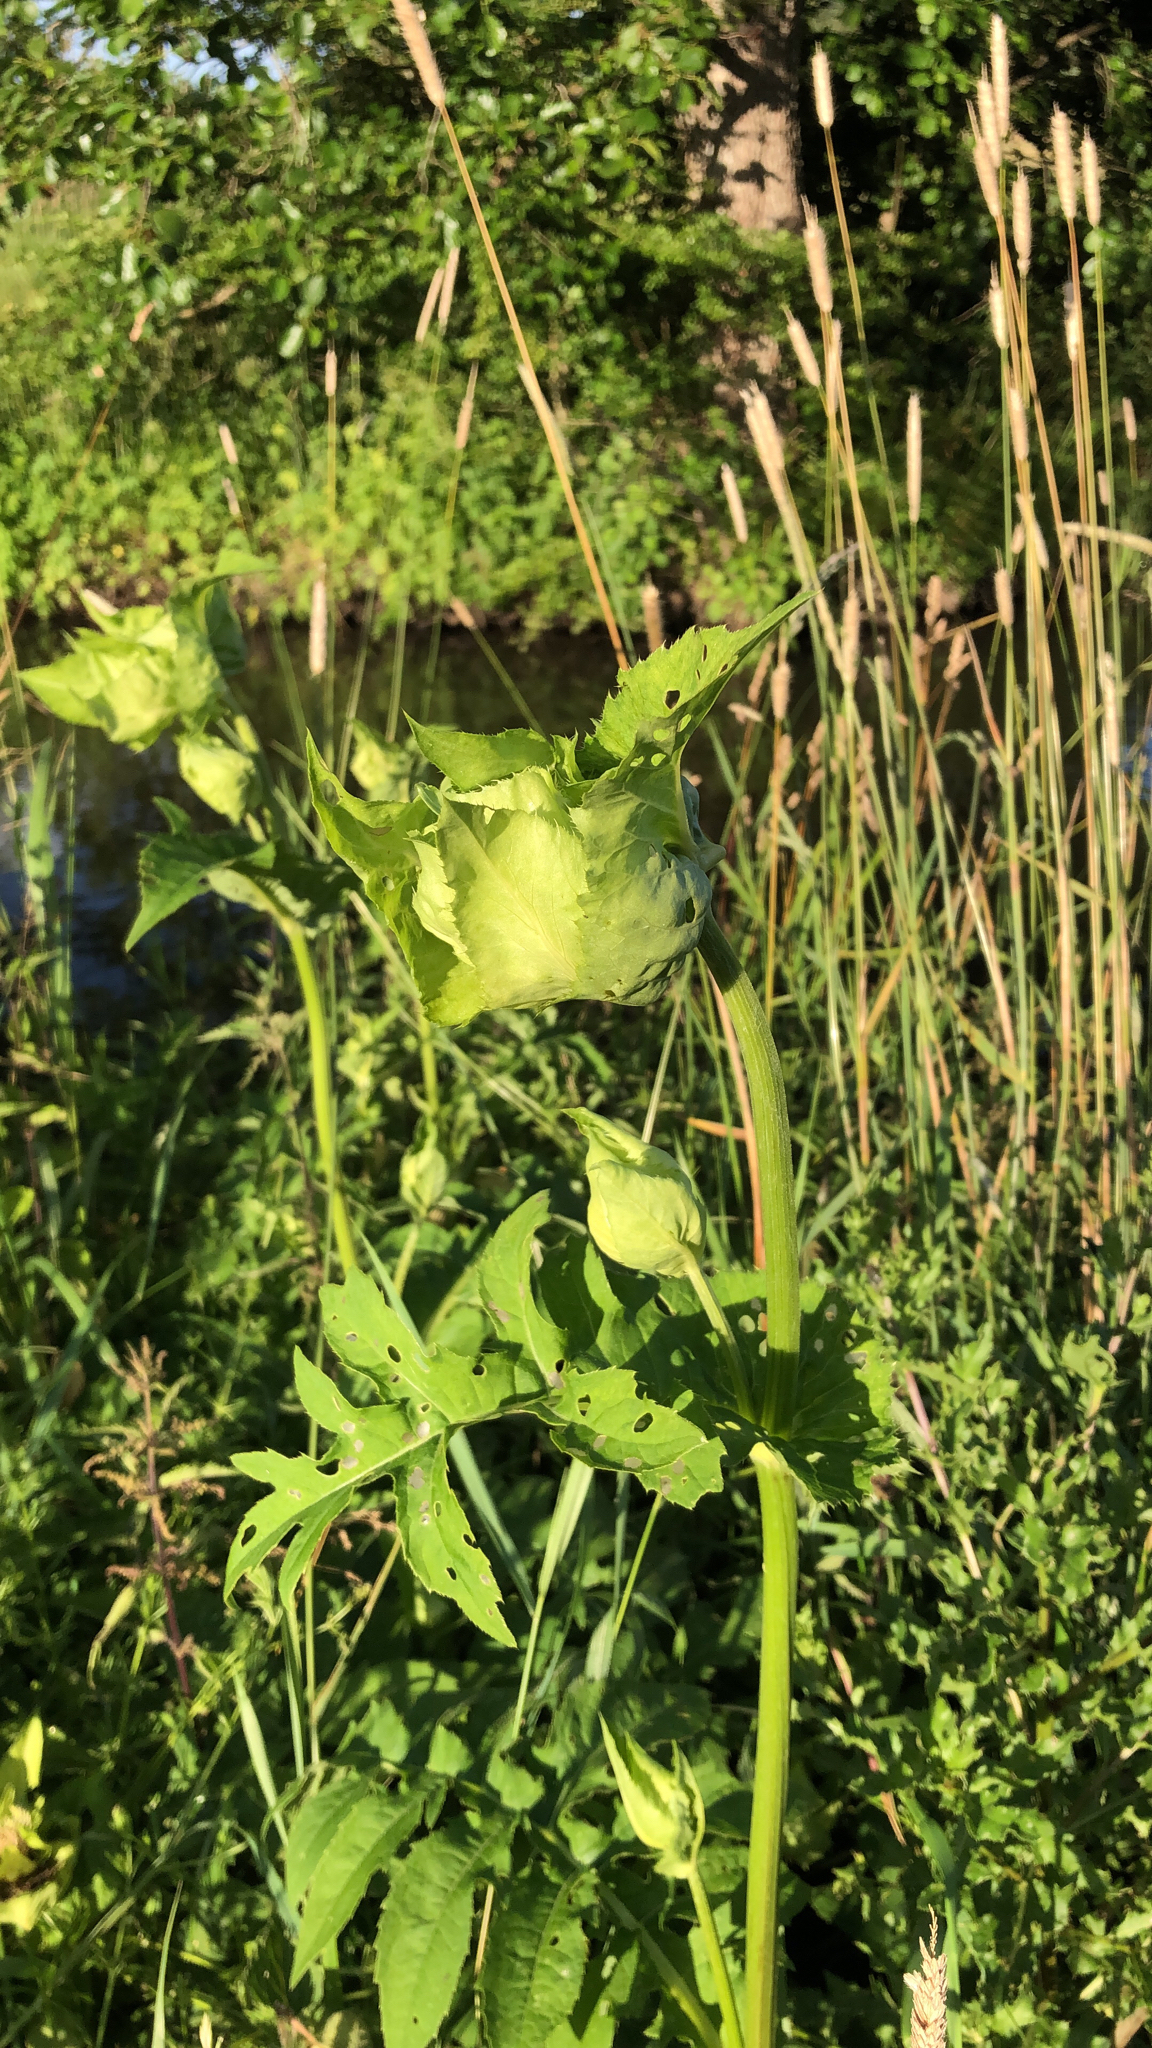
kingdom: Plantae
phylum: Tracheophyta
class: Magnoliopsida
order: Asterales
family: Asteraceae
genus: Cirsium
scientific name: Cirsium oleraceum
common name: Cabbage thistle
